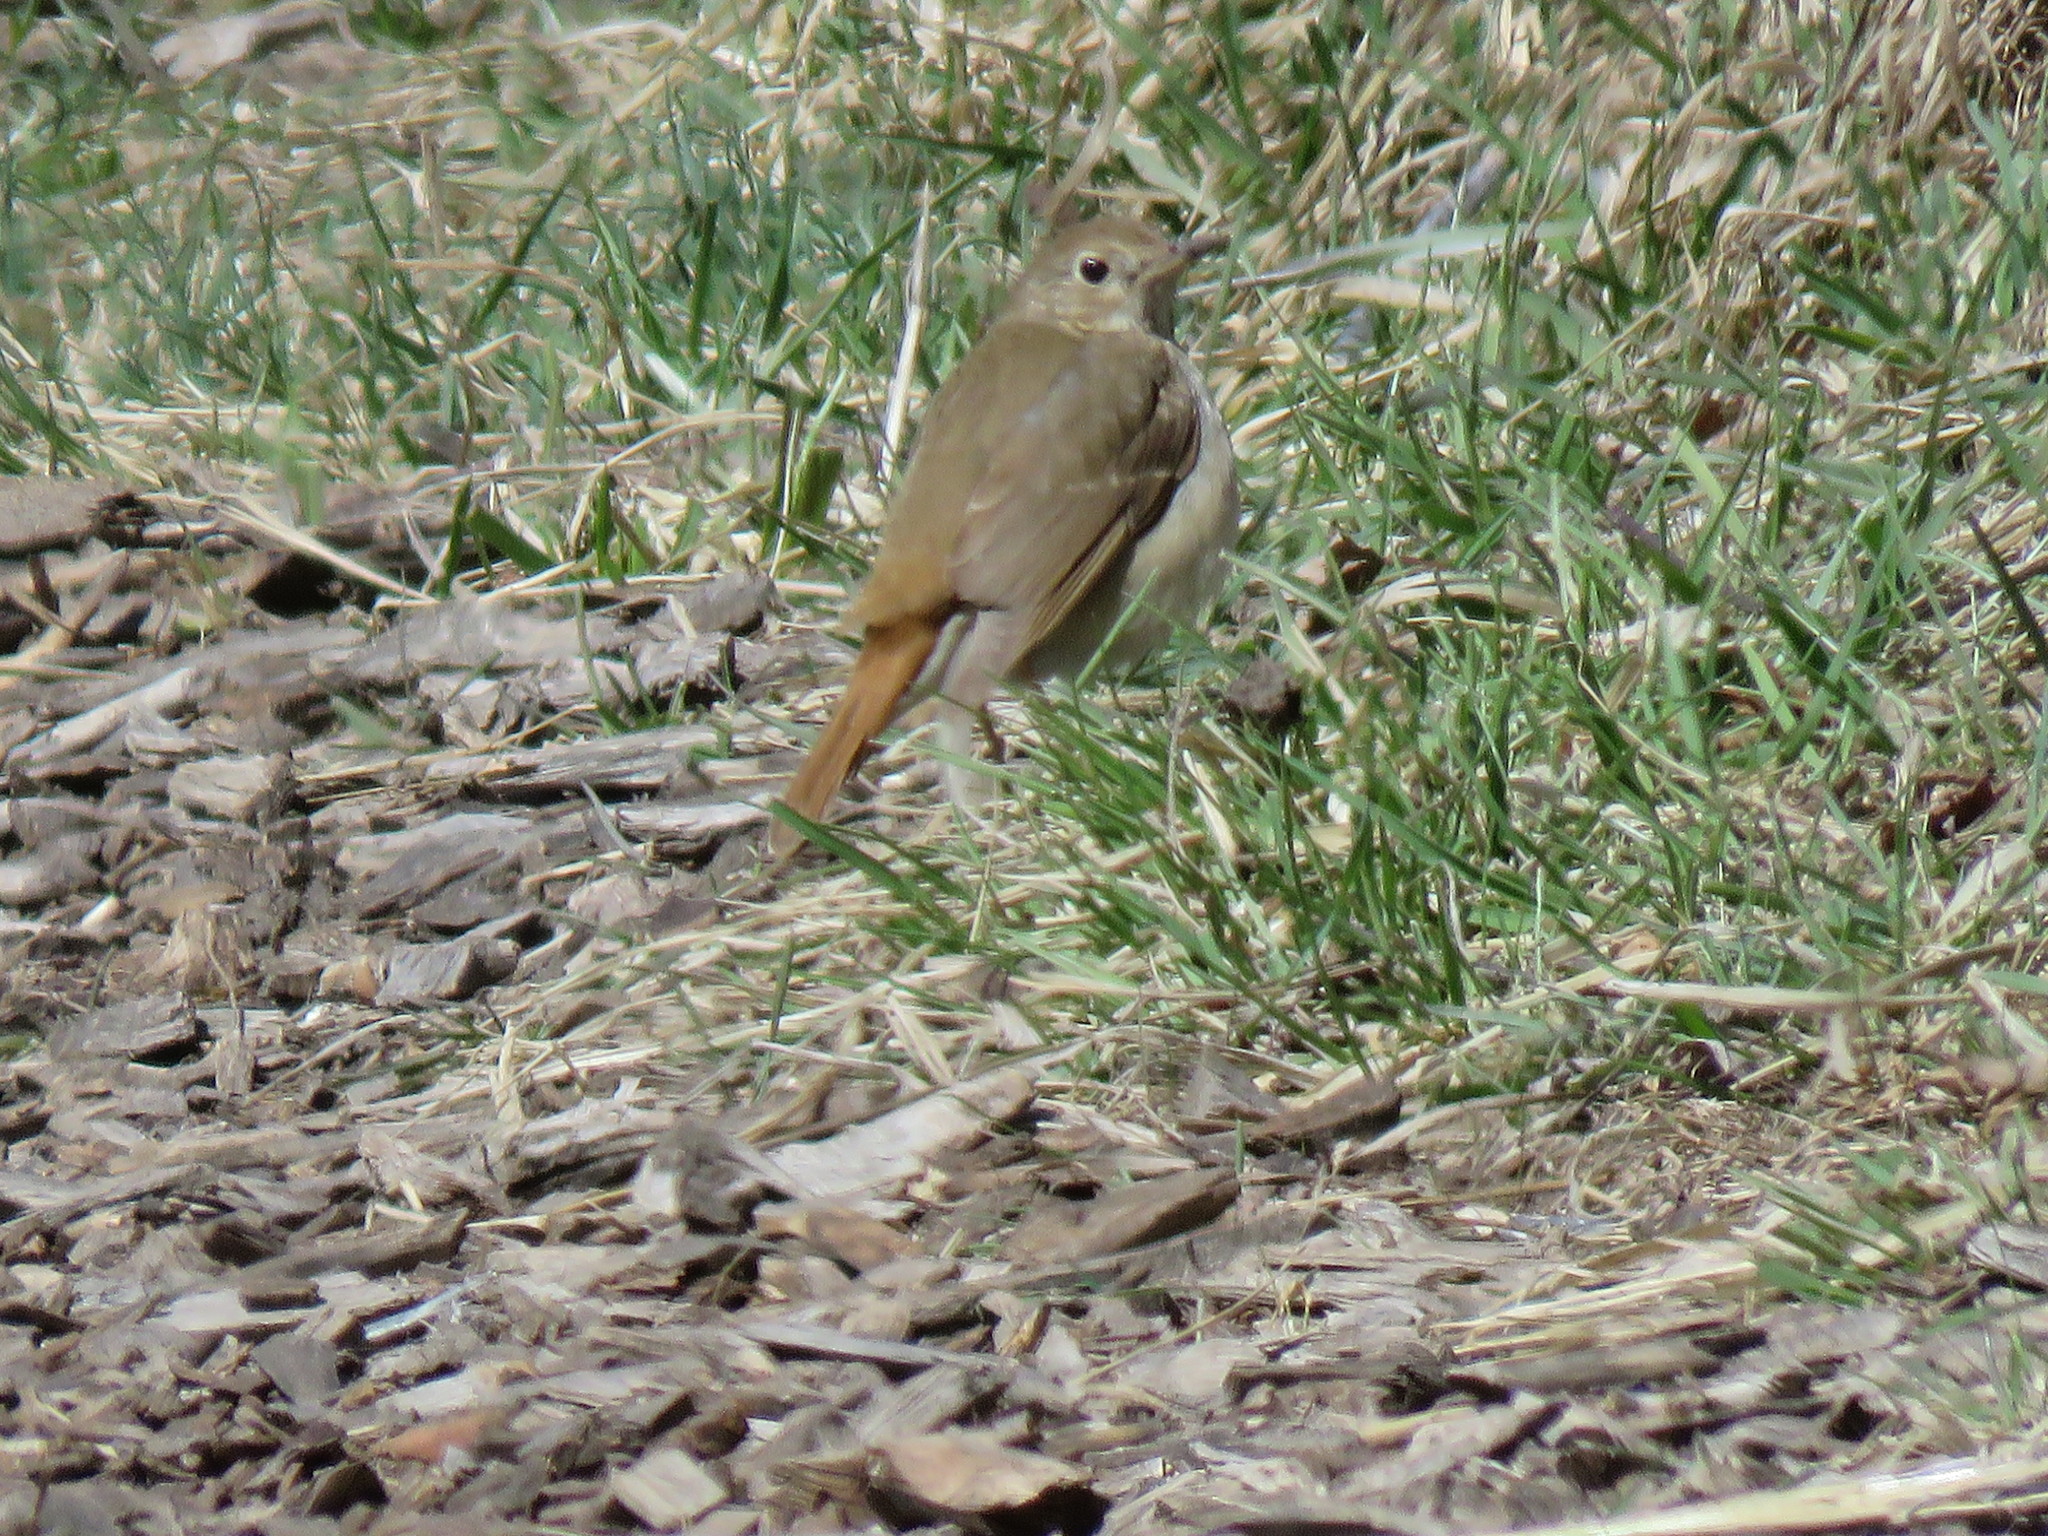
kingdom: Animalia
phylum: Chordata
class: Aves
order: Passeriformes
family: Turdidae
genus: Catharus
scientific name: Catharus guttatus
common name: Hermit thrush
